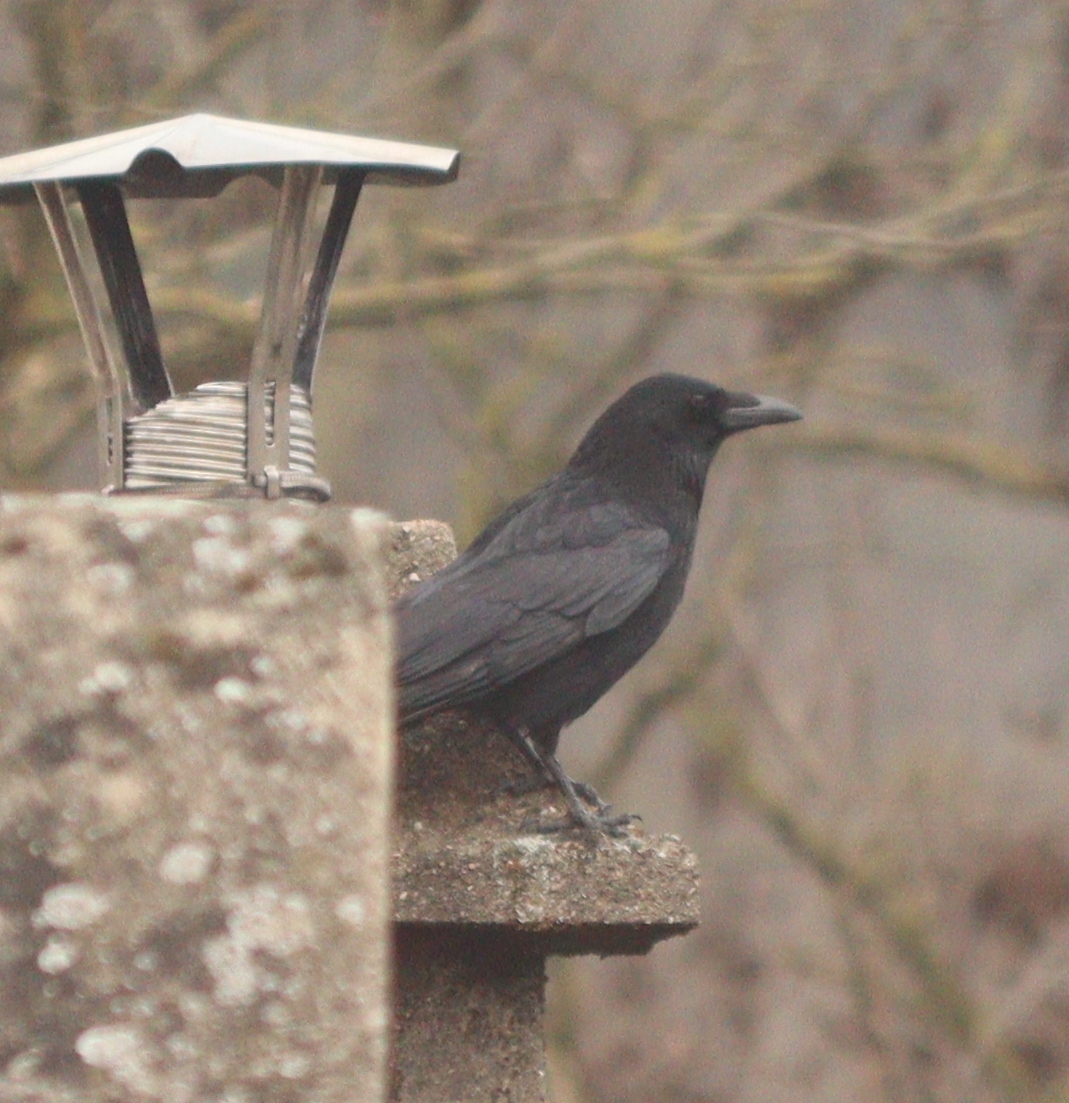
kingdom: Animalia
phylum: Chordata
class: Aves
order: Passeriformes
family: Corvidae
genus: Corvus
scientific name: Corvus corone
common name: Carrion crow
